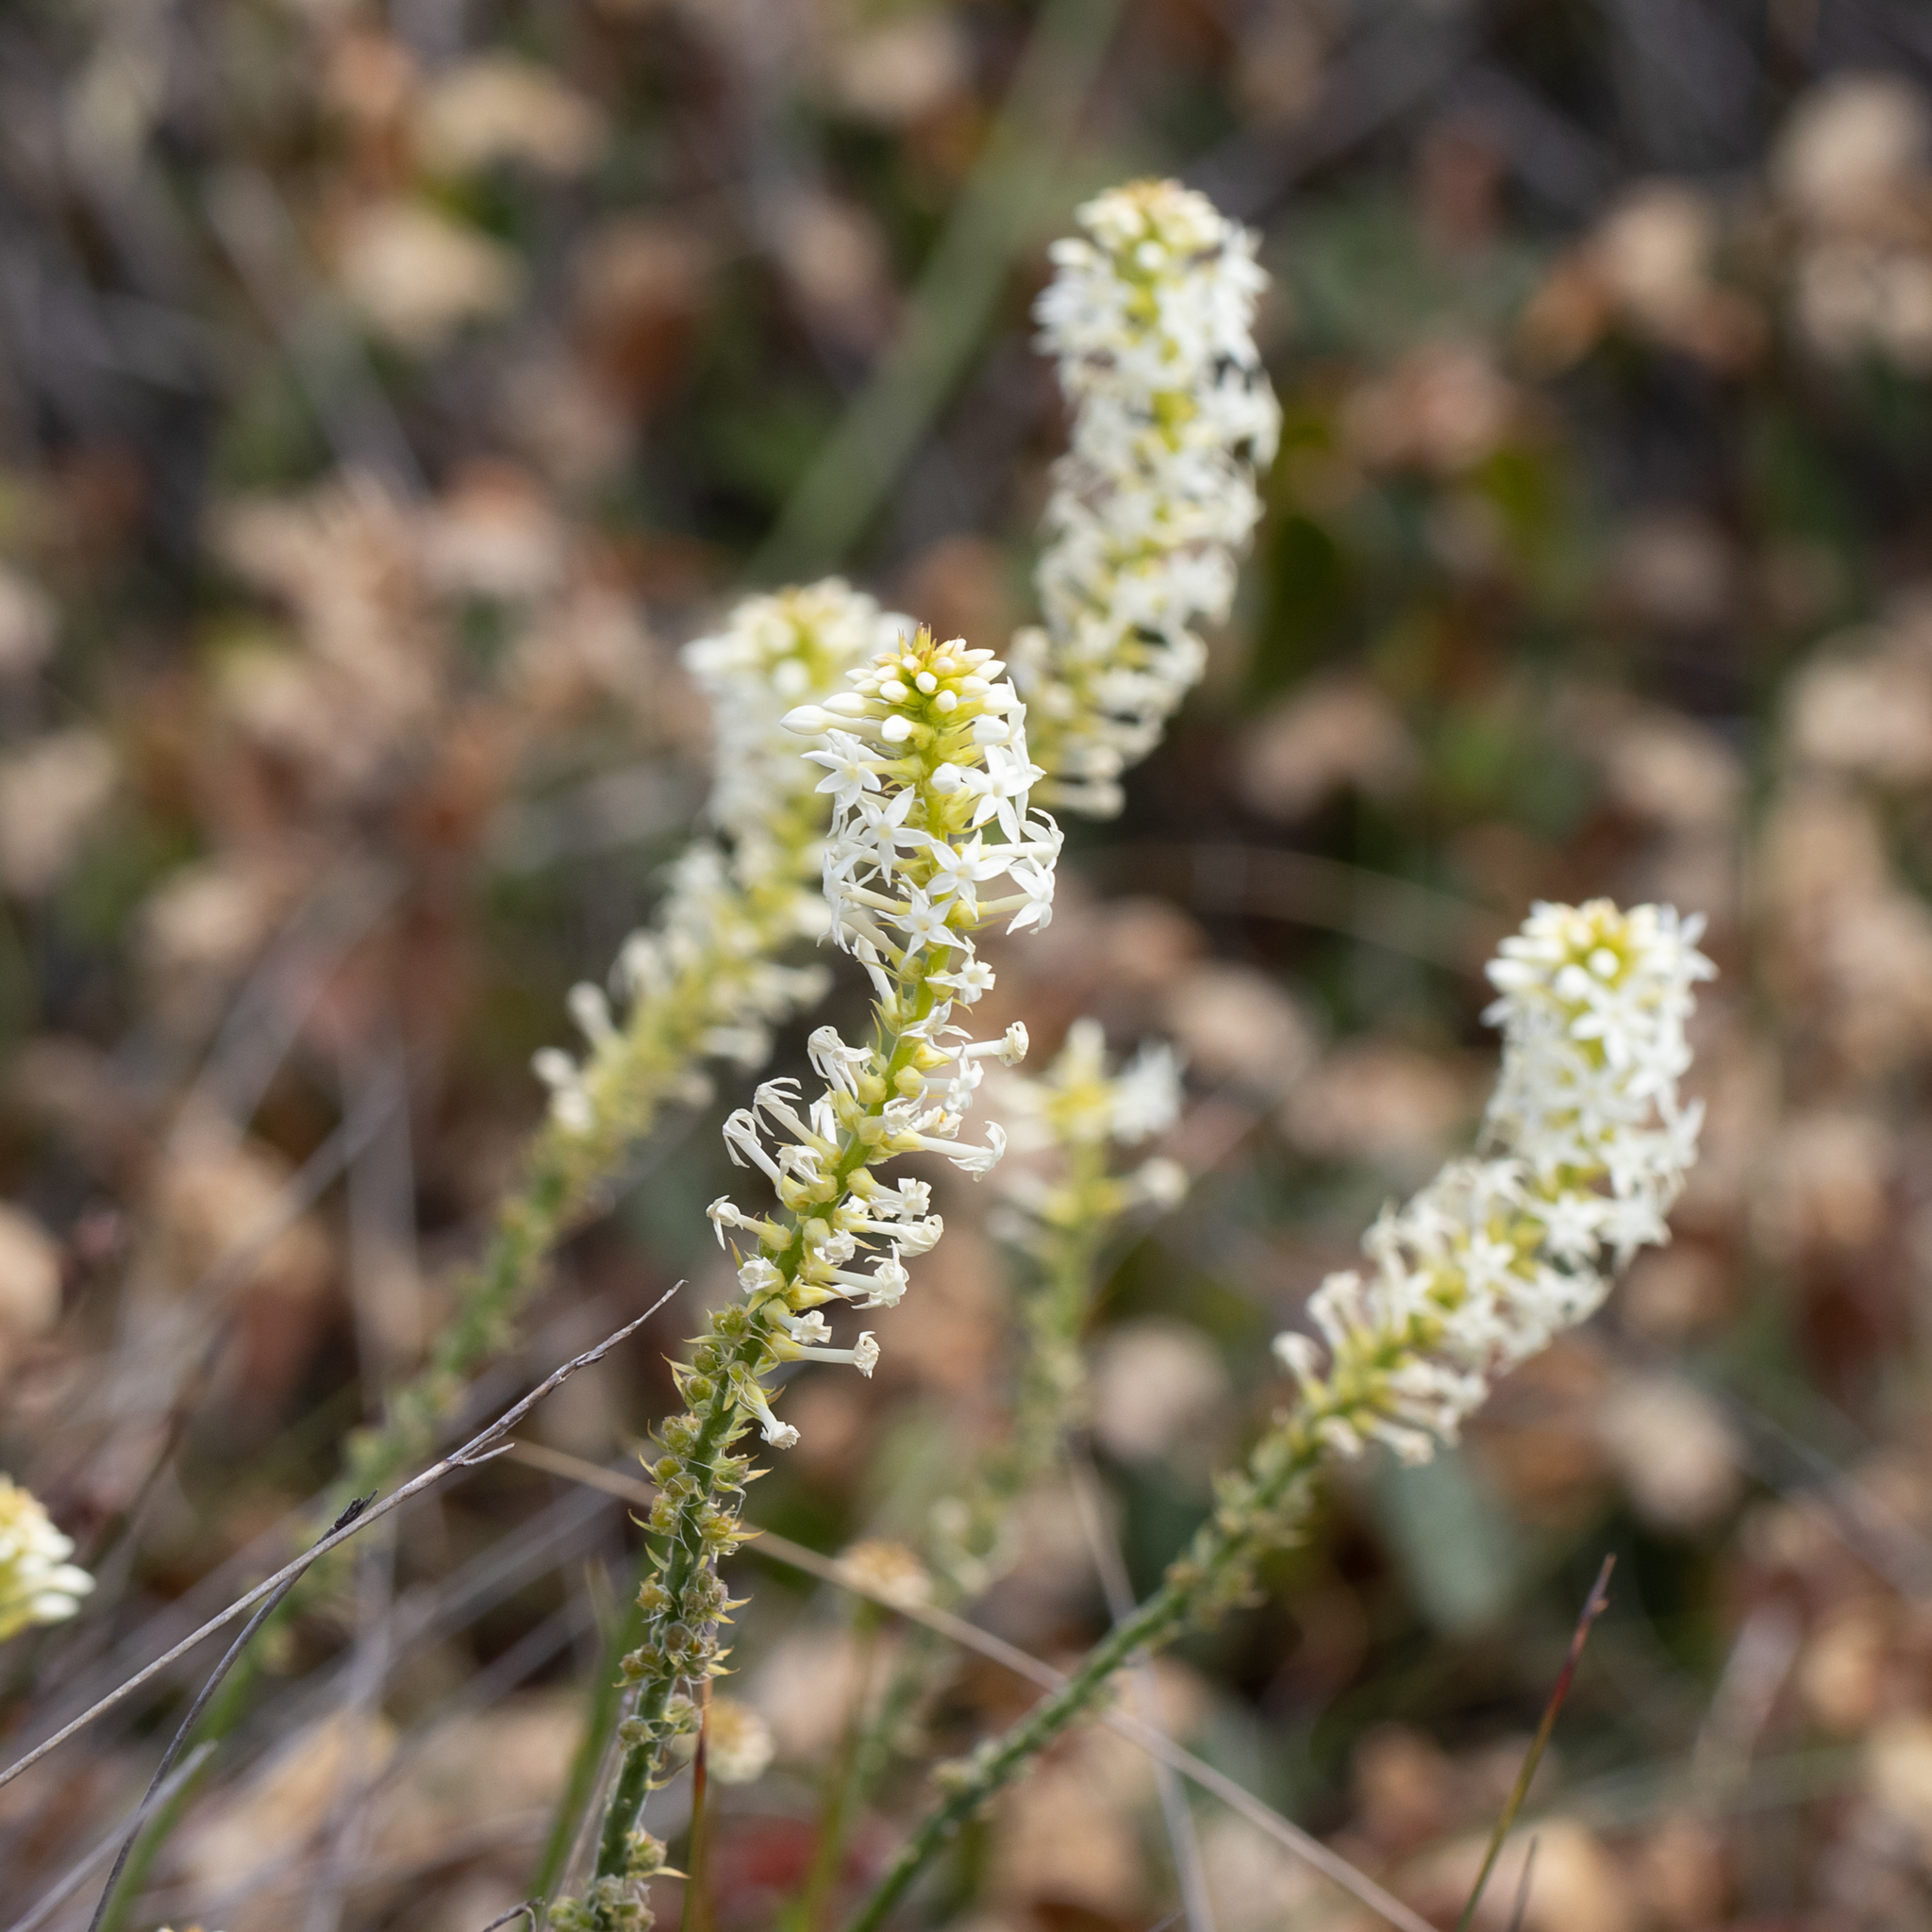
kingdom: Plantae
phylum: Tracheophyta
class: Magnoliopsida
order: Celastrales
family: Celastraceae
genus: Stackhousia
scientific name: Stackhousia monogyna
